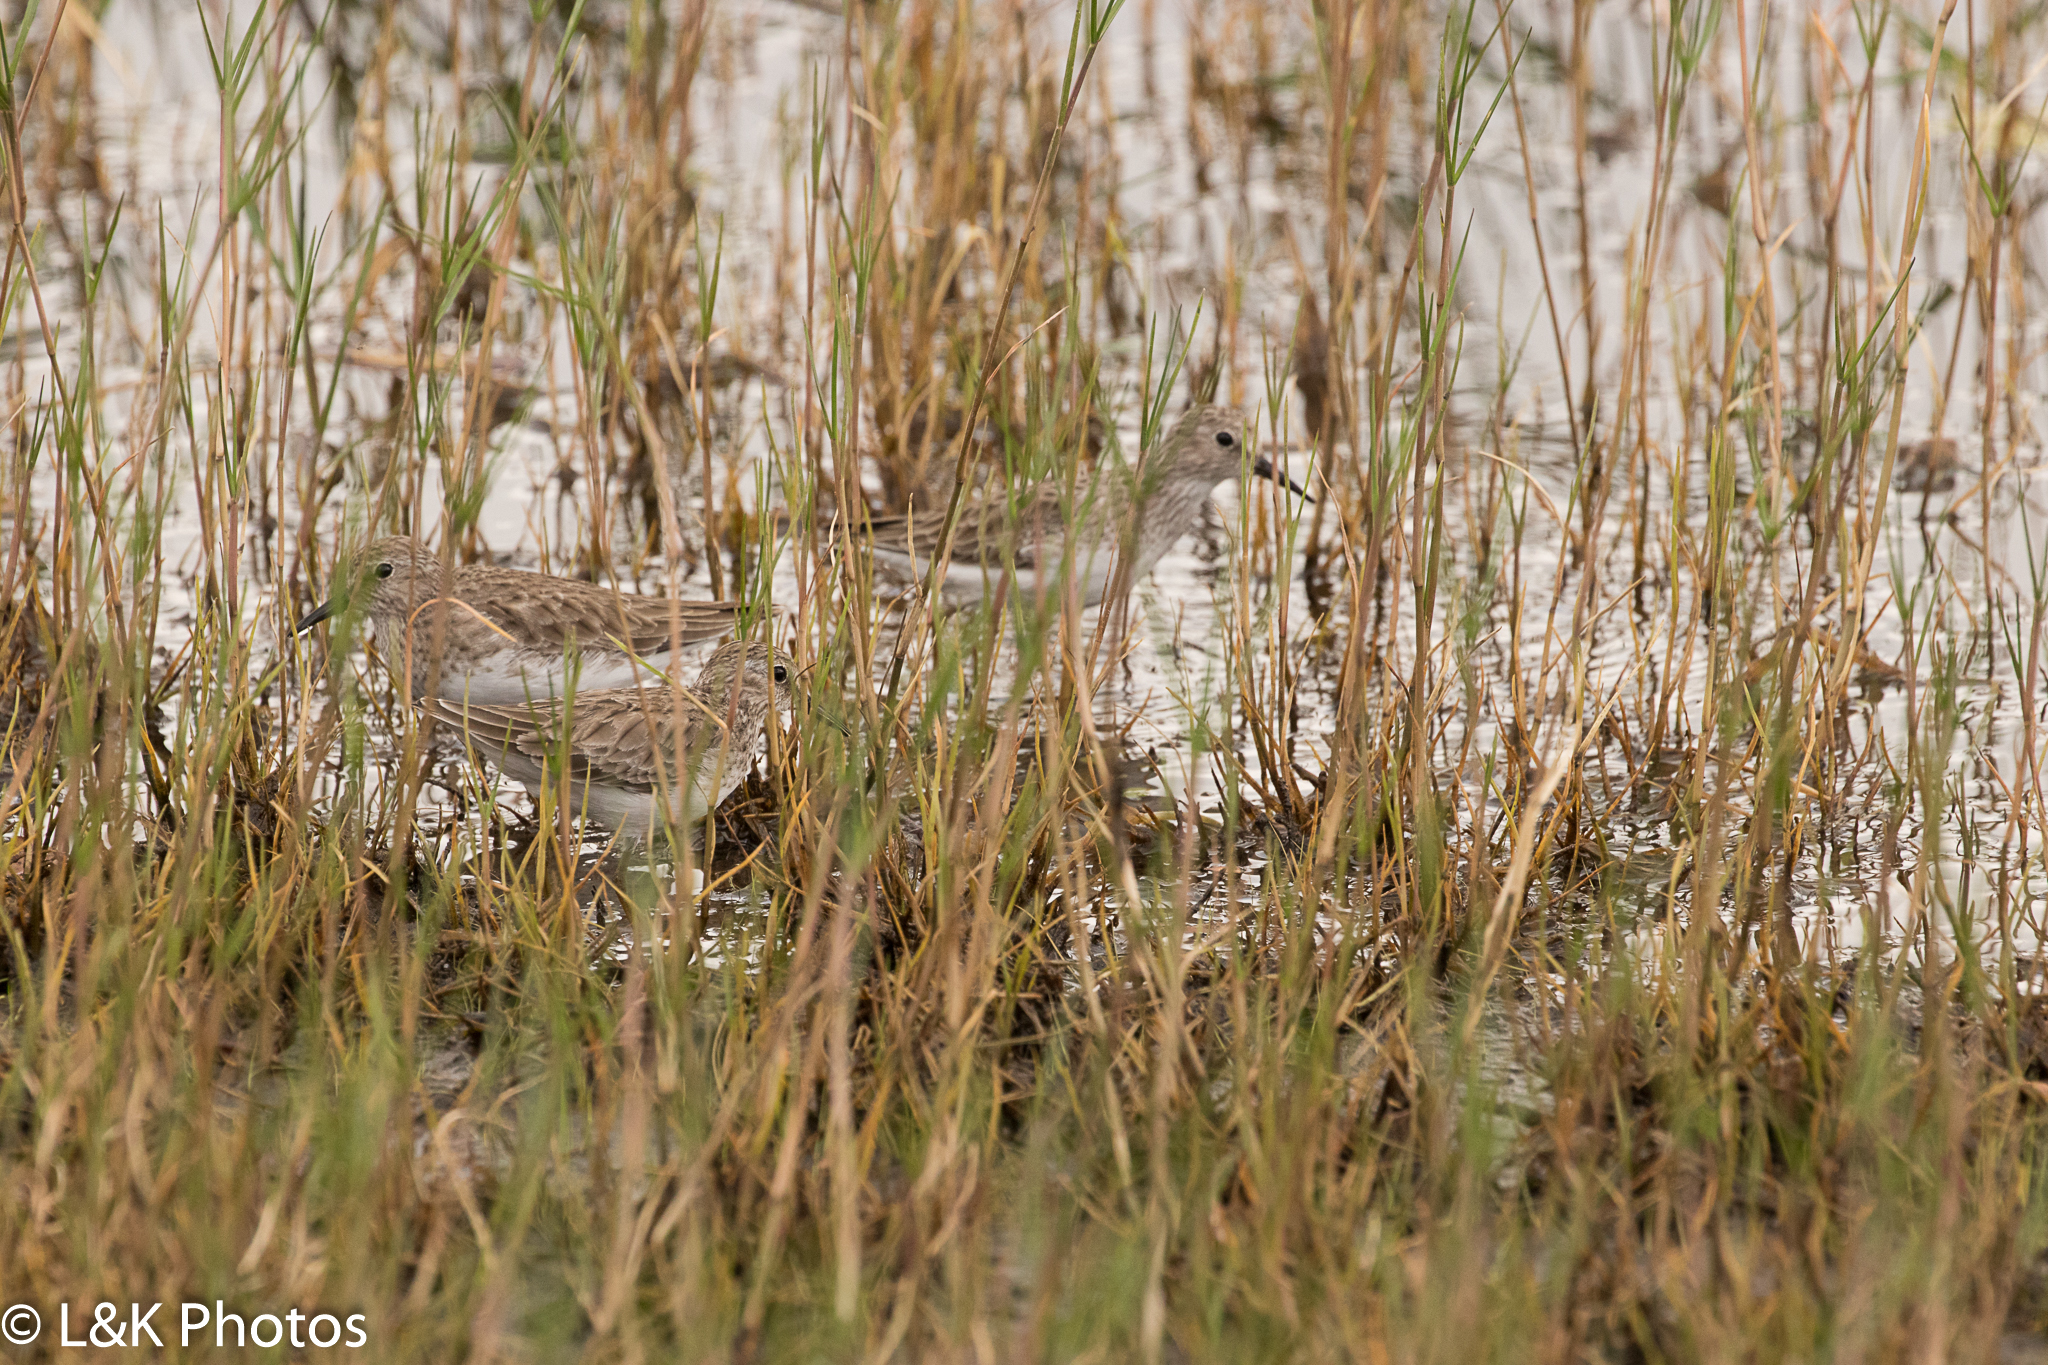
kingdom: Animalia
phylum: Chordata
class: Aves
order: Charadriiformes
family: Scolopacidae
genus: Calidris
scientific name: Calidris minutilla
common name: Least sandpiper
